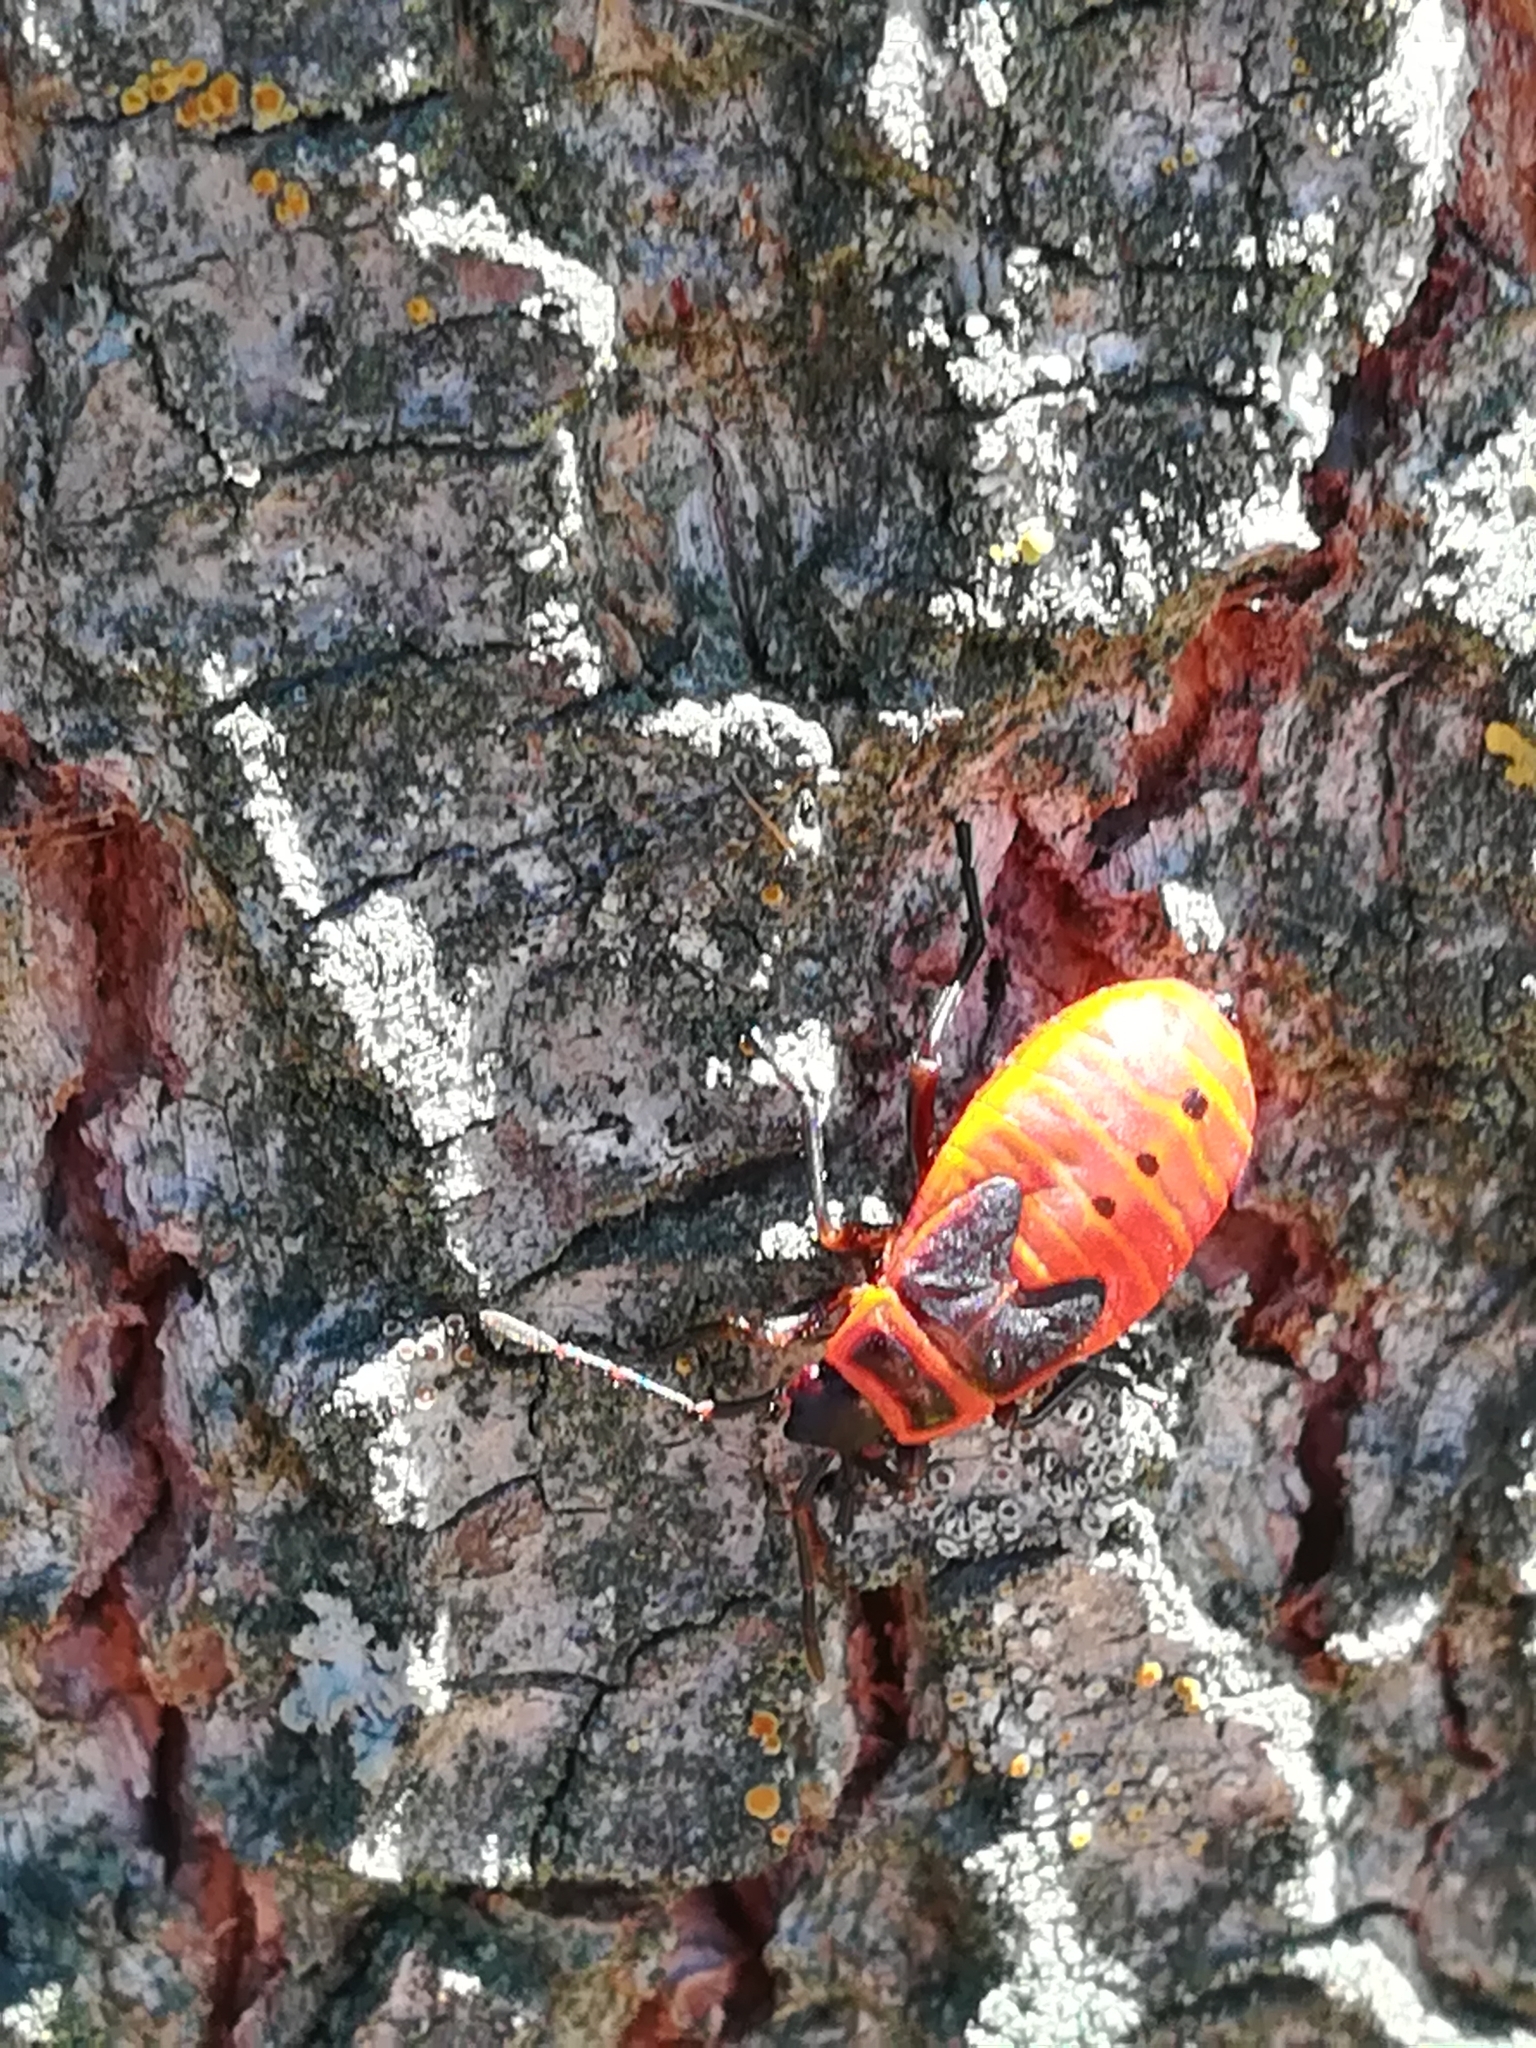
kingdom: Animalia
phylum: Arthropoda
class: Insecta
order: Hemiptera
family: Pyrrhocoridae
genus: Pyrrhocoris
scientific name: Pyrrhocoris apterus
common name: Firebug
